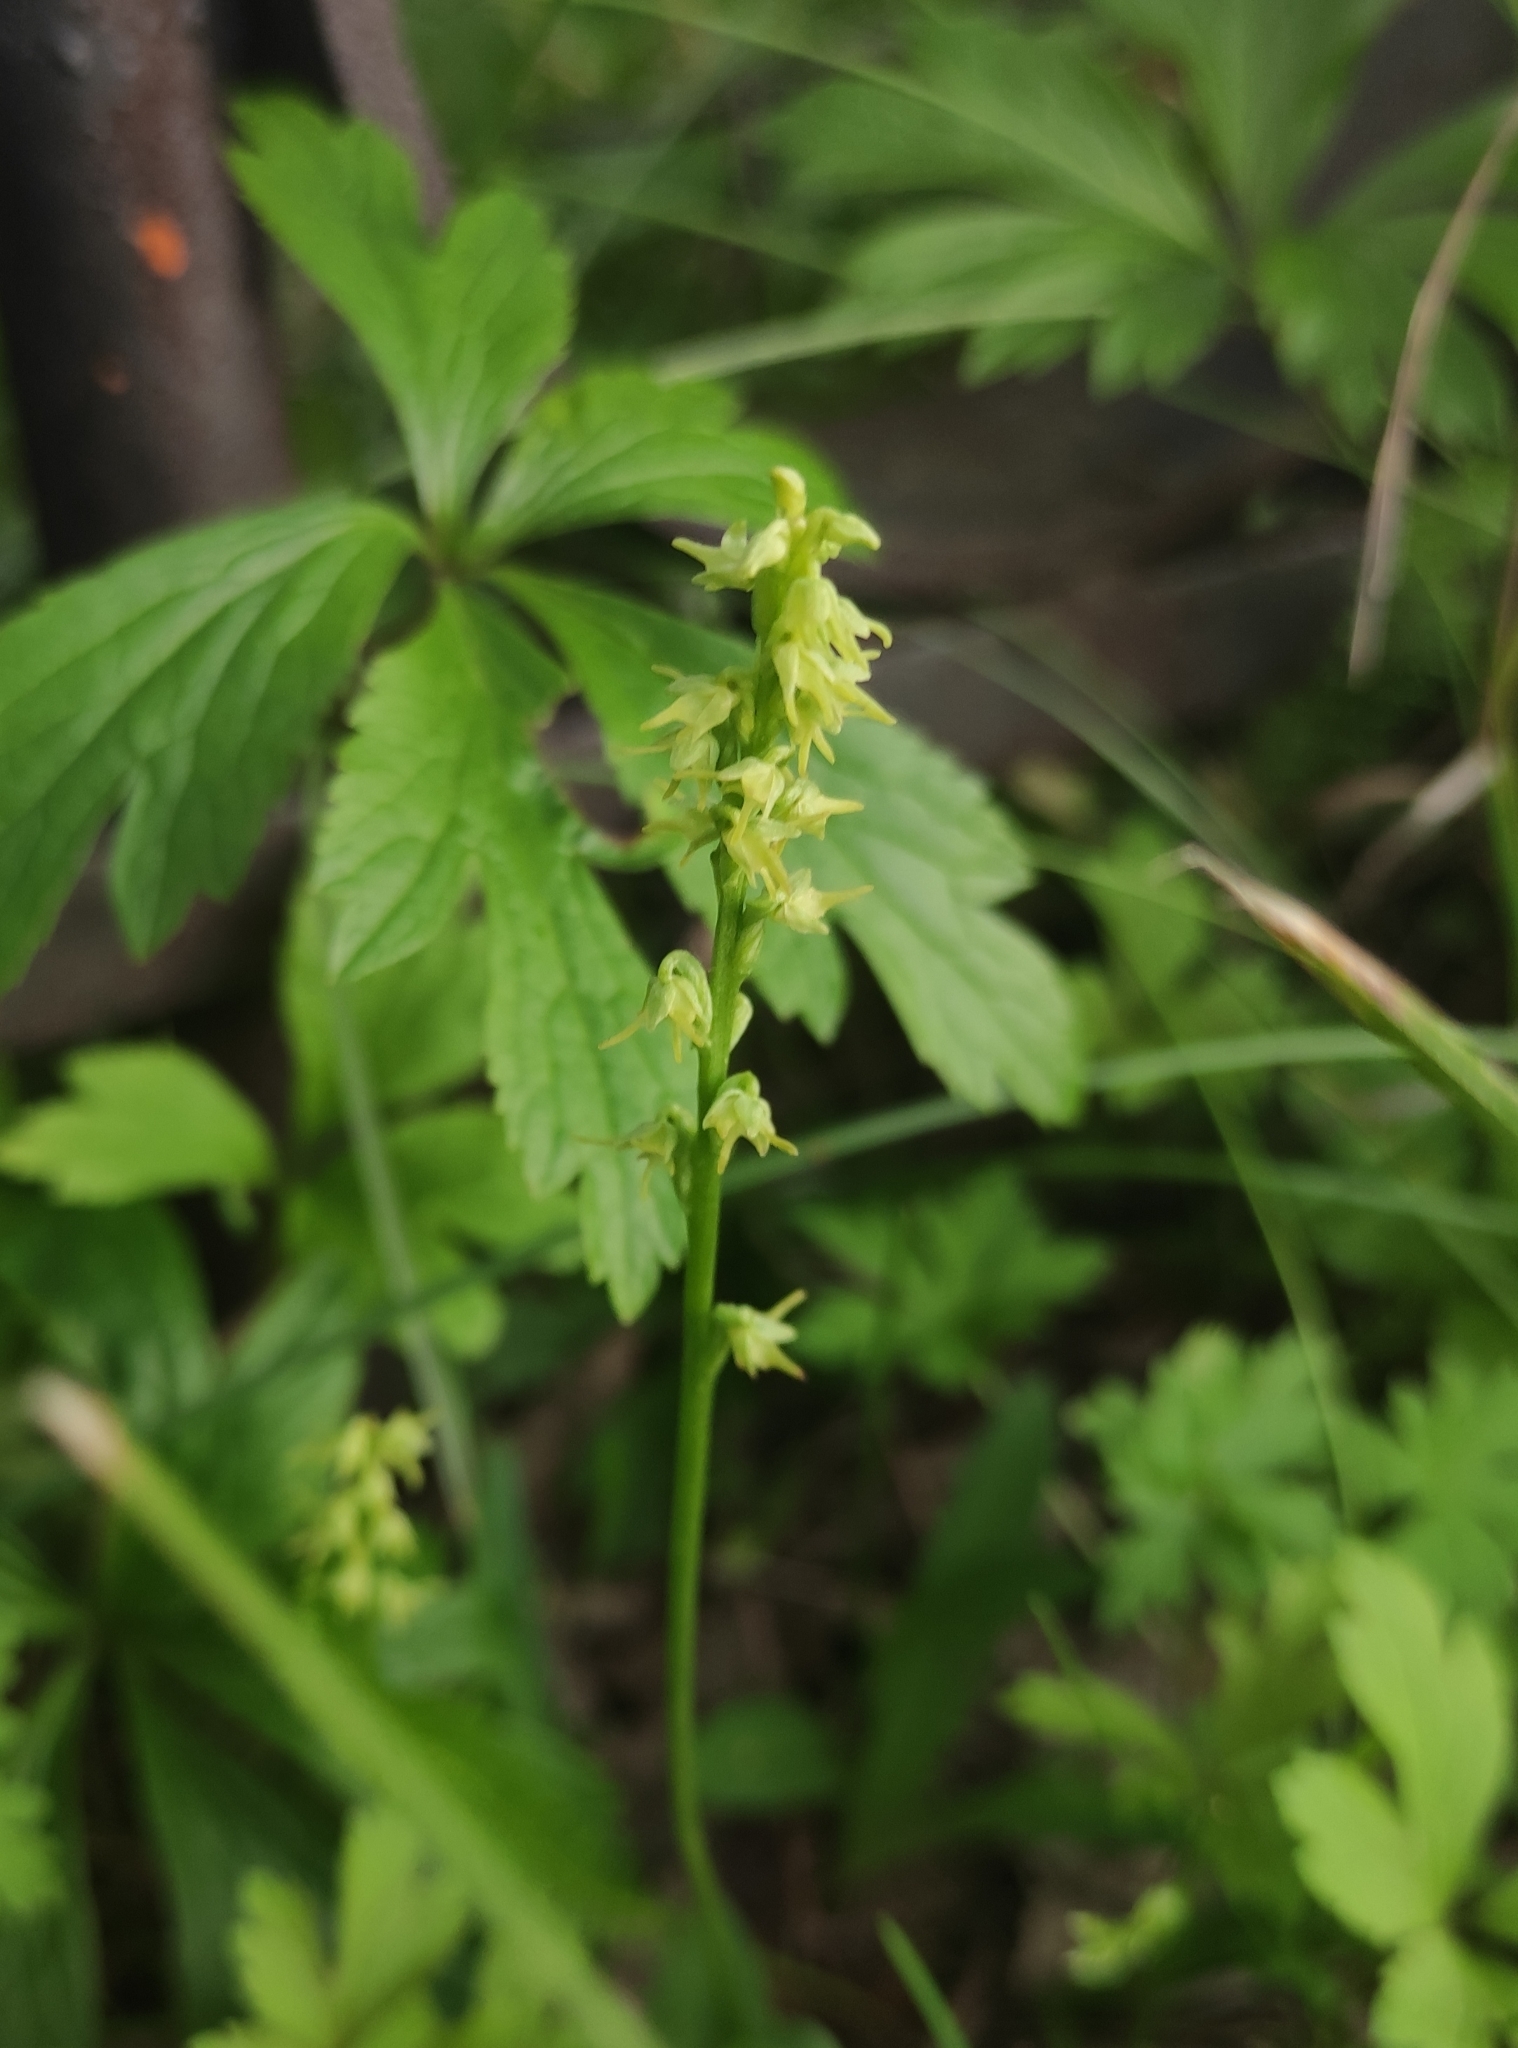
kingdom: Plantae
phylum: Tracheophyta
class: Liliopsida
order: Asparagales
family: Orchidaceae
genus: Herminium
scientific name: Herminium monorchis
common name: Musk orchid
